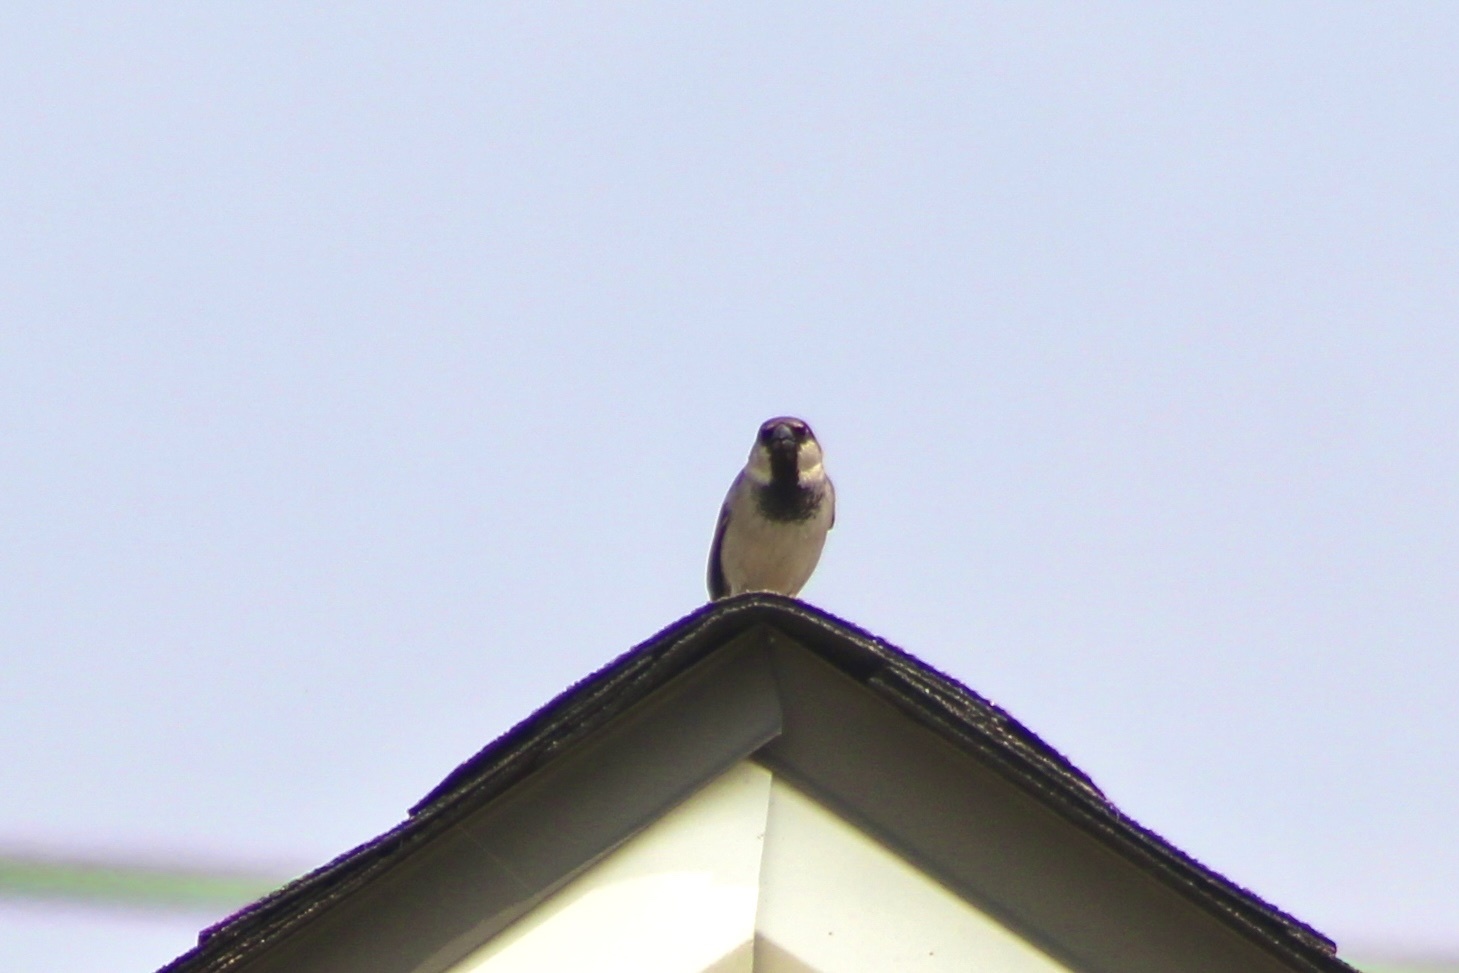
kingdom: Animalia
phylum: Chordata
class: Aves
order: Passeriformes
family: Passeridae
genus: Passer
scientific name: Passer domesticus
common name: House sparrow
